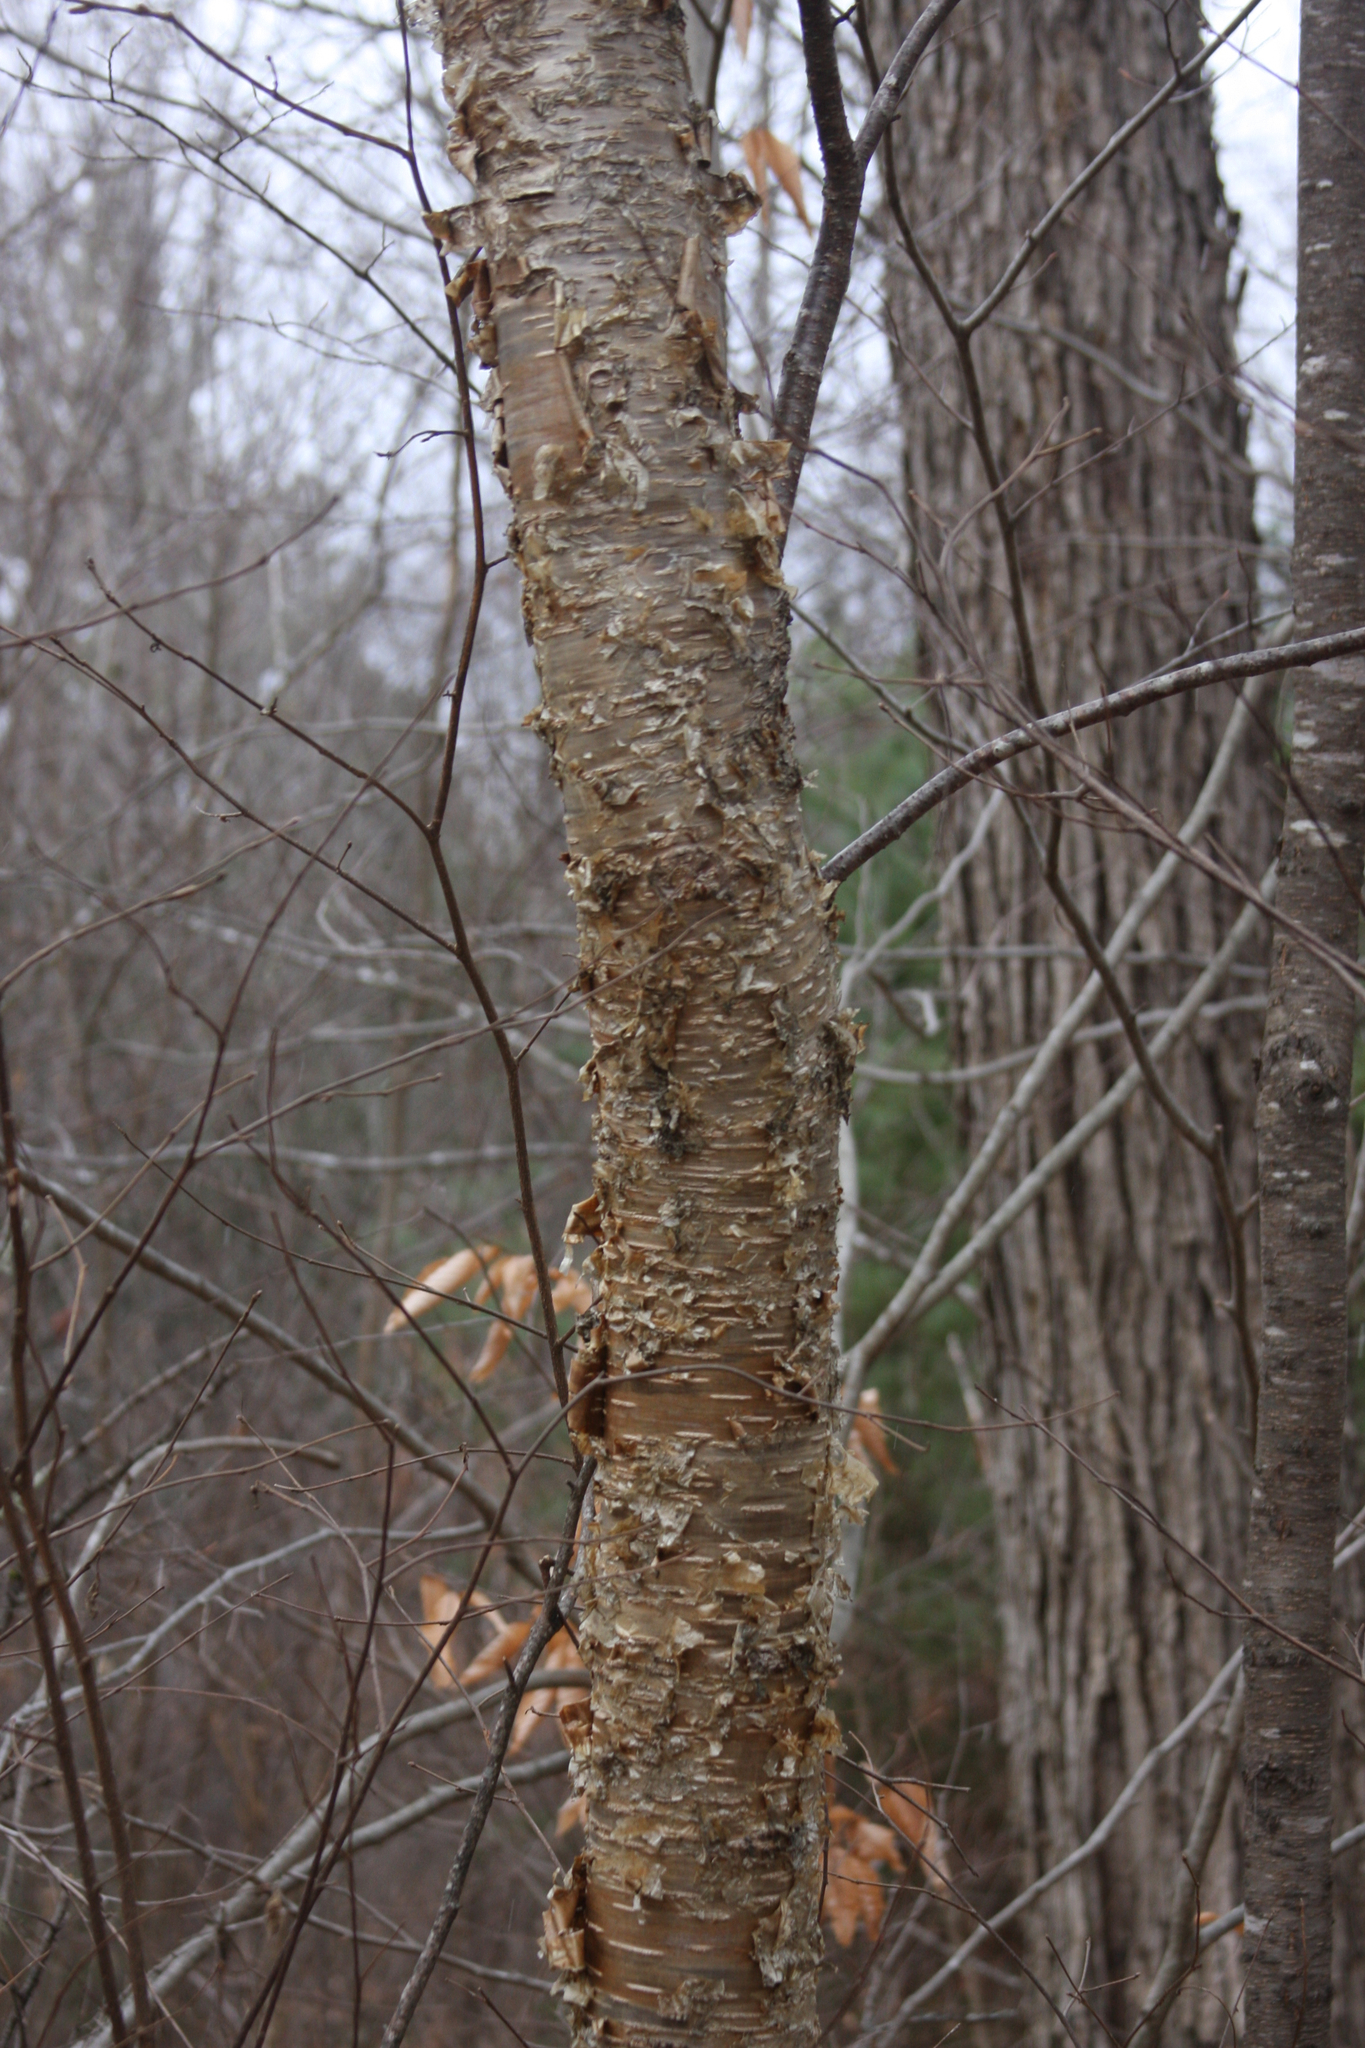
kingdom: Plantae
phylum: Tracheophyta
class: Magnoliopsida
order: Fagales
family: Betulaceae
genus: Betula
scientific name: Betula alleghaniensis
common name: Yellow birch
